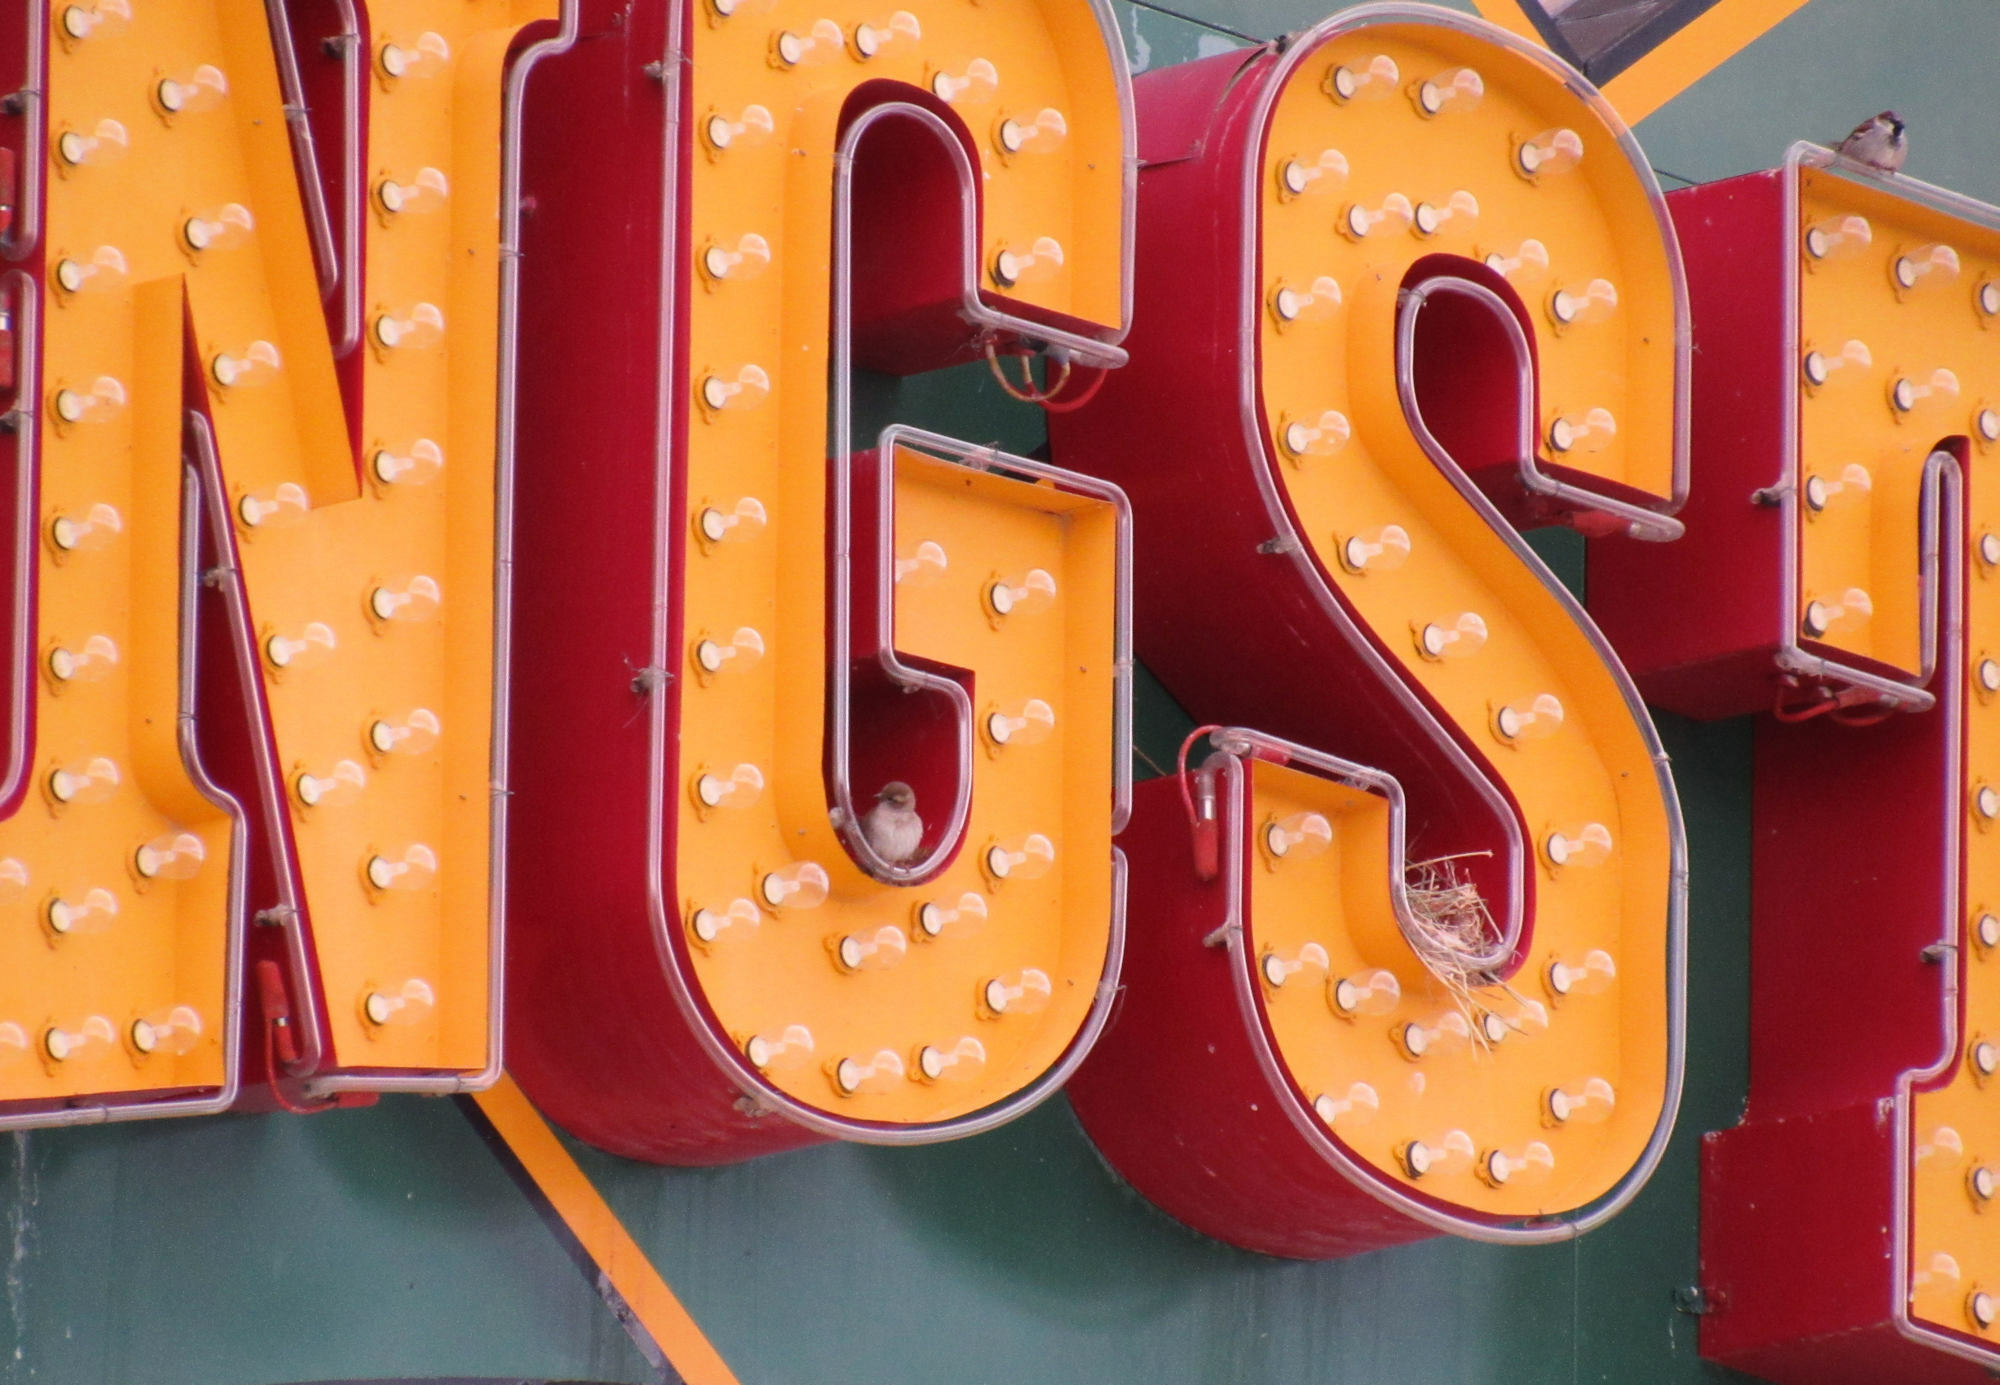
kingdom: Animalia
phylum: Chordata
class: Aves
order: Passeriformes
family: Passeridae
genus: Passer
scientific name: Passer domesticus
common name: House sparrow
